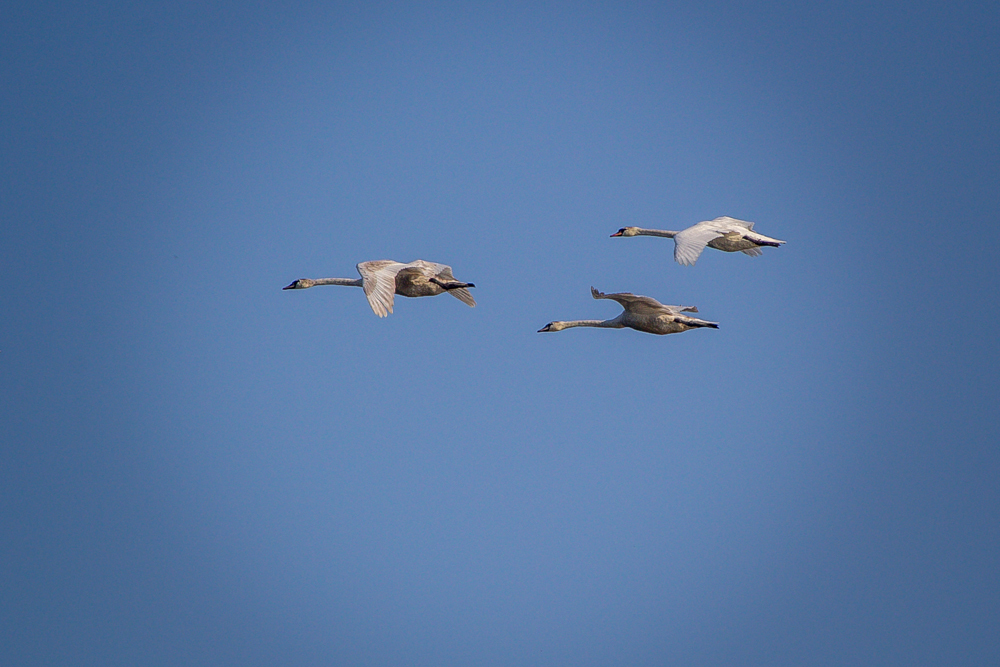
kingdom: Animalia
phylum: Chordata
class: Aves
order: Anseriformes
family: Anatidae
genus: Cygnus
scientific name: Cygnus olor
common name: Mute swan
